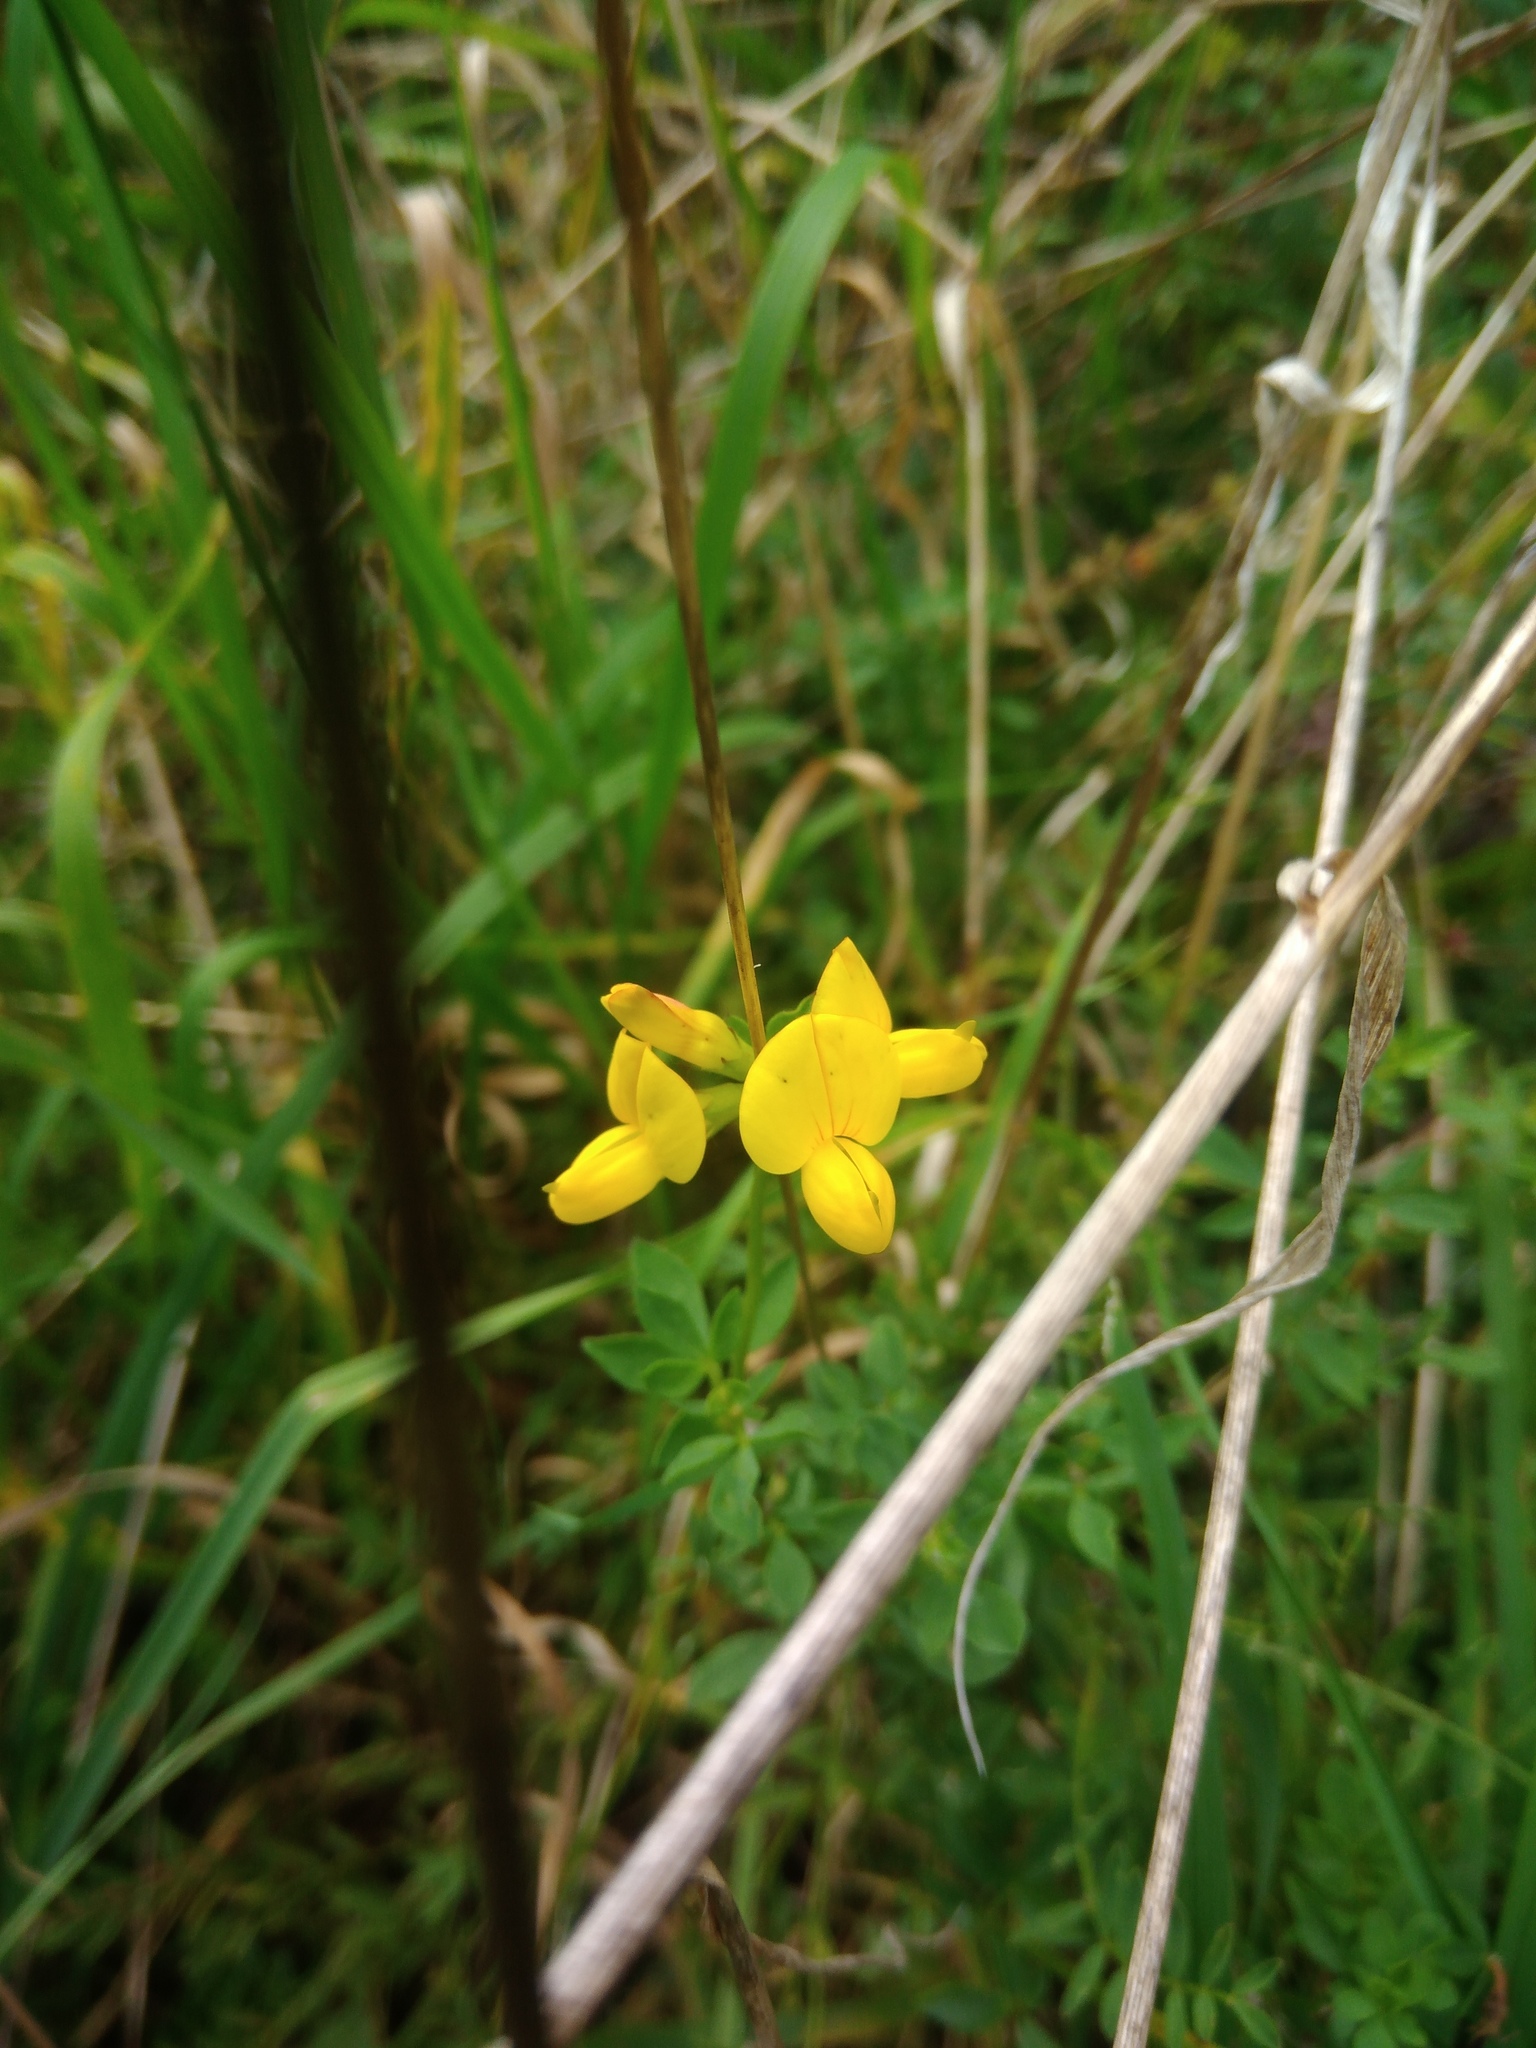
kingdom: Plantae
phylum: Tracheophyta
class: Magnoliopsida
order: Fabales
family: Fabaceae
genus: Lotus
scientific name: Lotus corniculatus
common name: Common bird's-foot-trefoil
